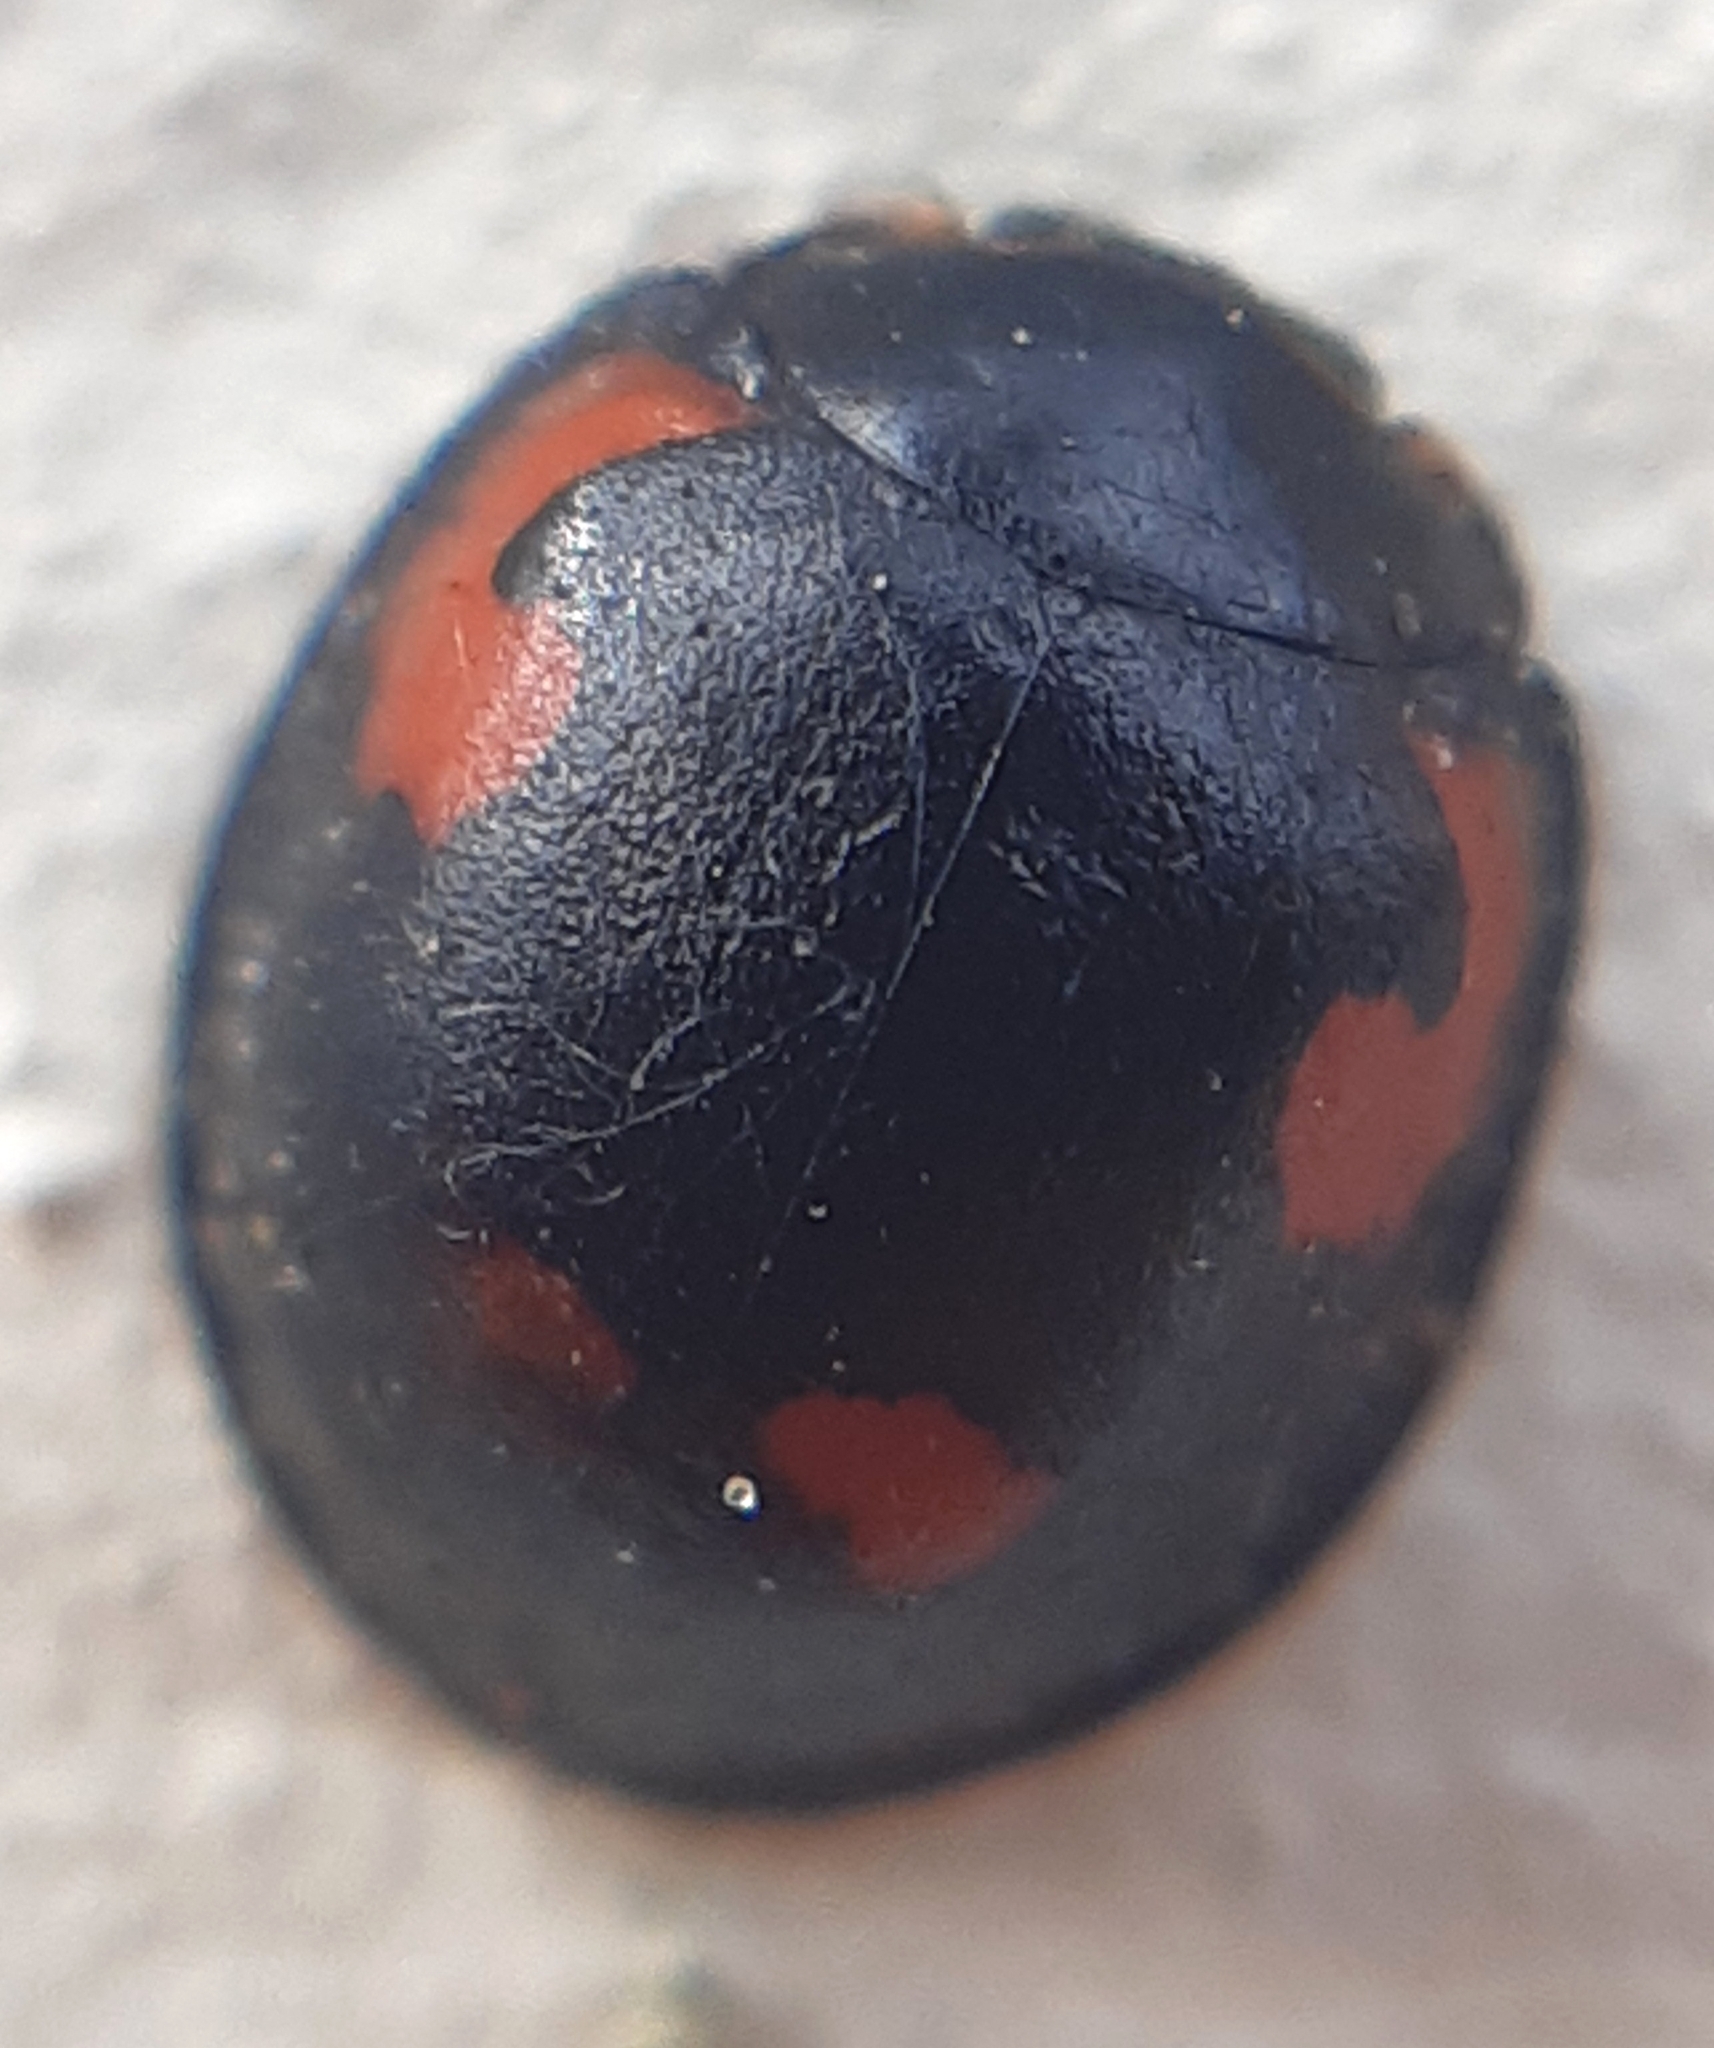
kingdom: Animalia
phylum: Arthropoda
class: Insecta
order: Coleoptera
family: Coccinellidae
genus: Brumus
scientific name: Brumus quadripustulatus
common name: Ladybird beetle
